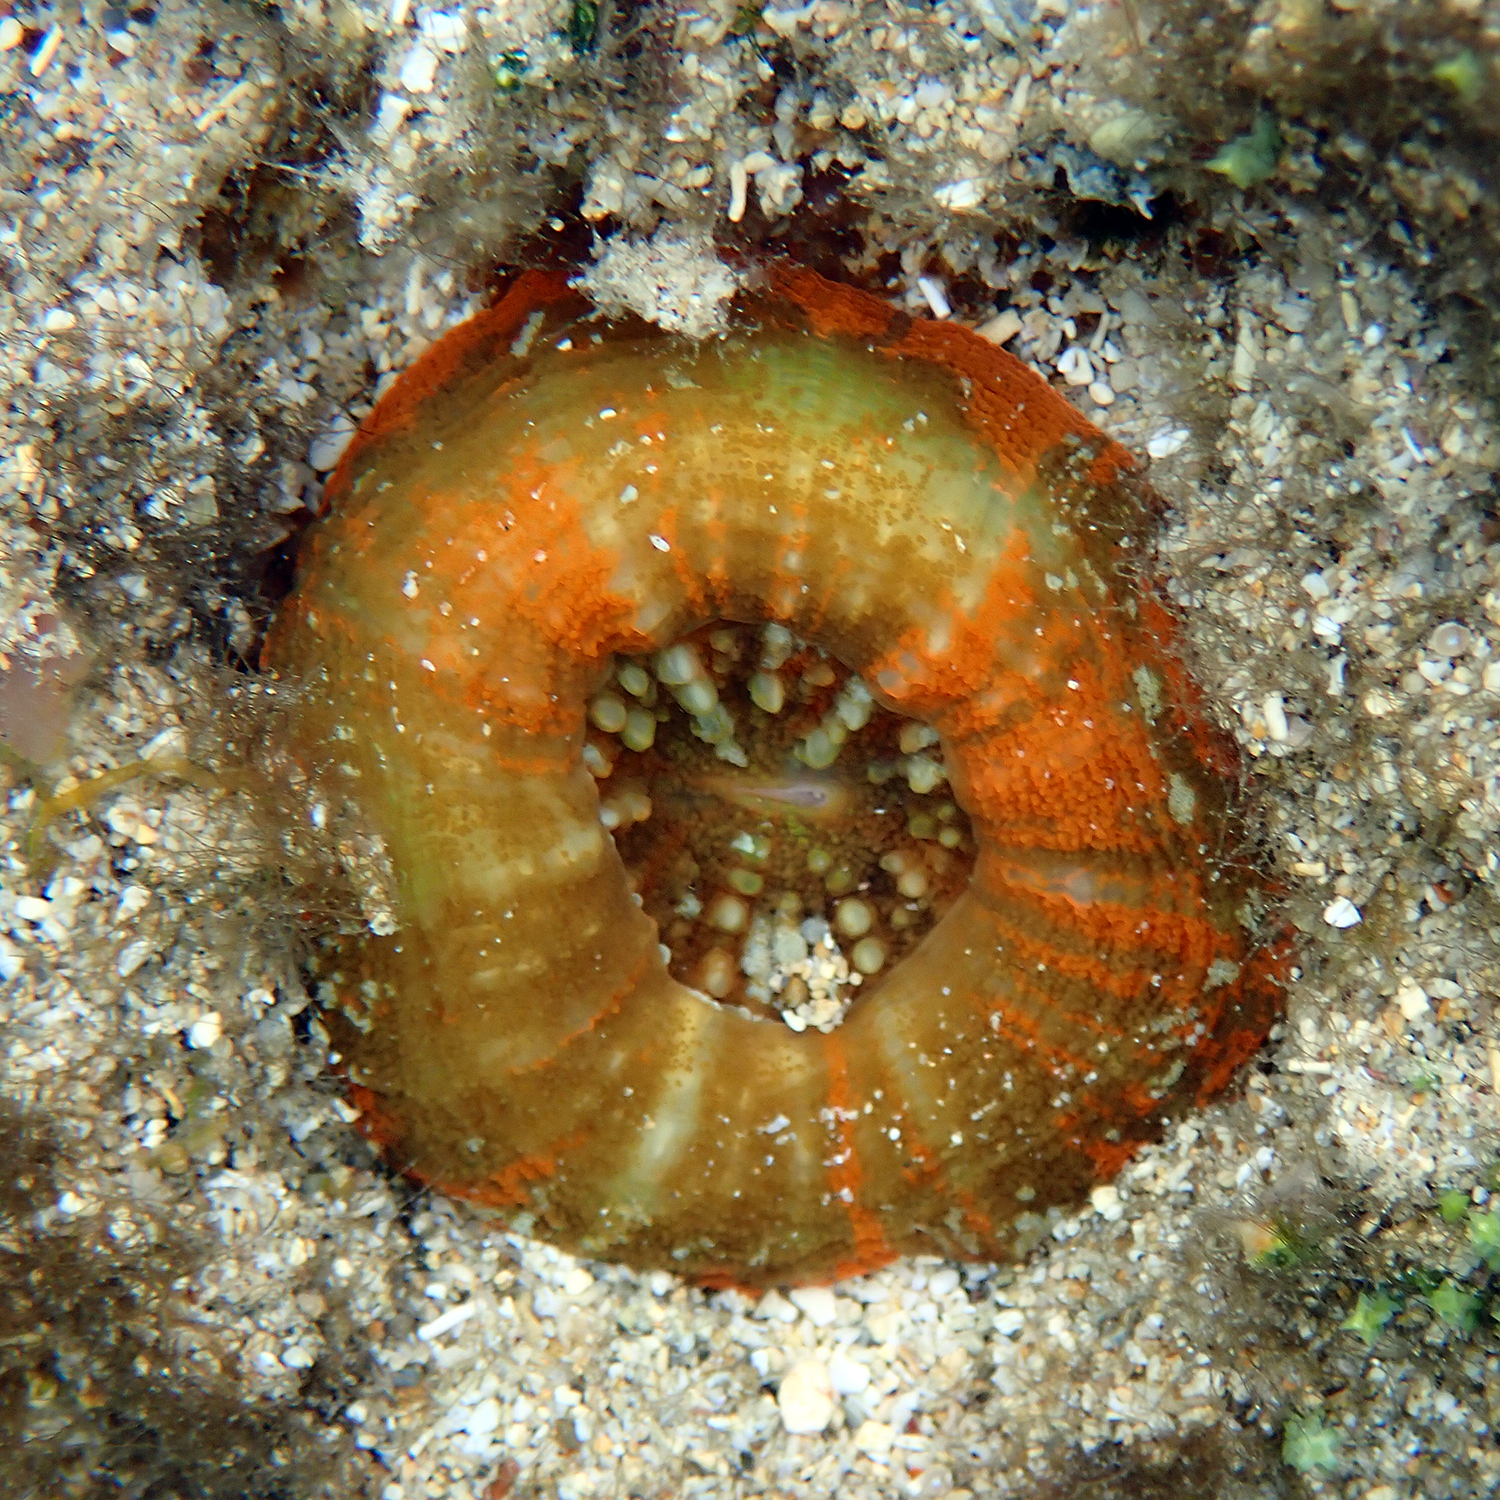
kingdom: Animalia
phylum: Cnidaria
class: Anthozoa
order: Scleractinia
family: Lobophylliidae
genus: Homophyllia
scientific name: Homophyllia australis
